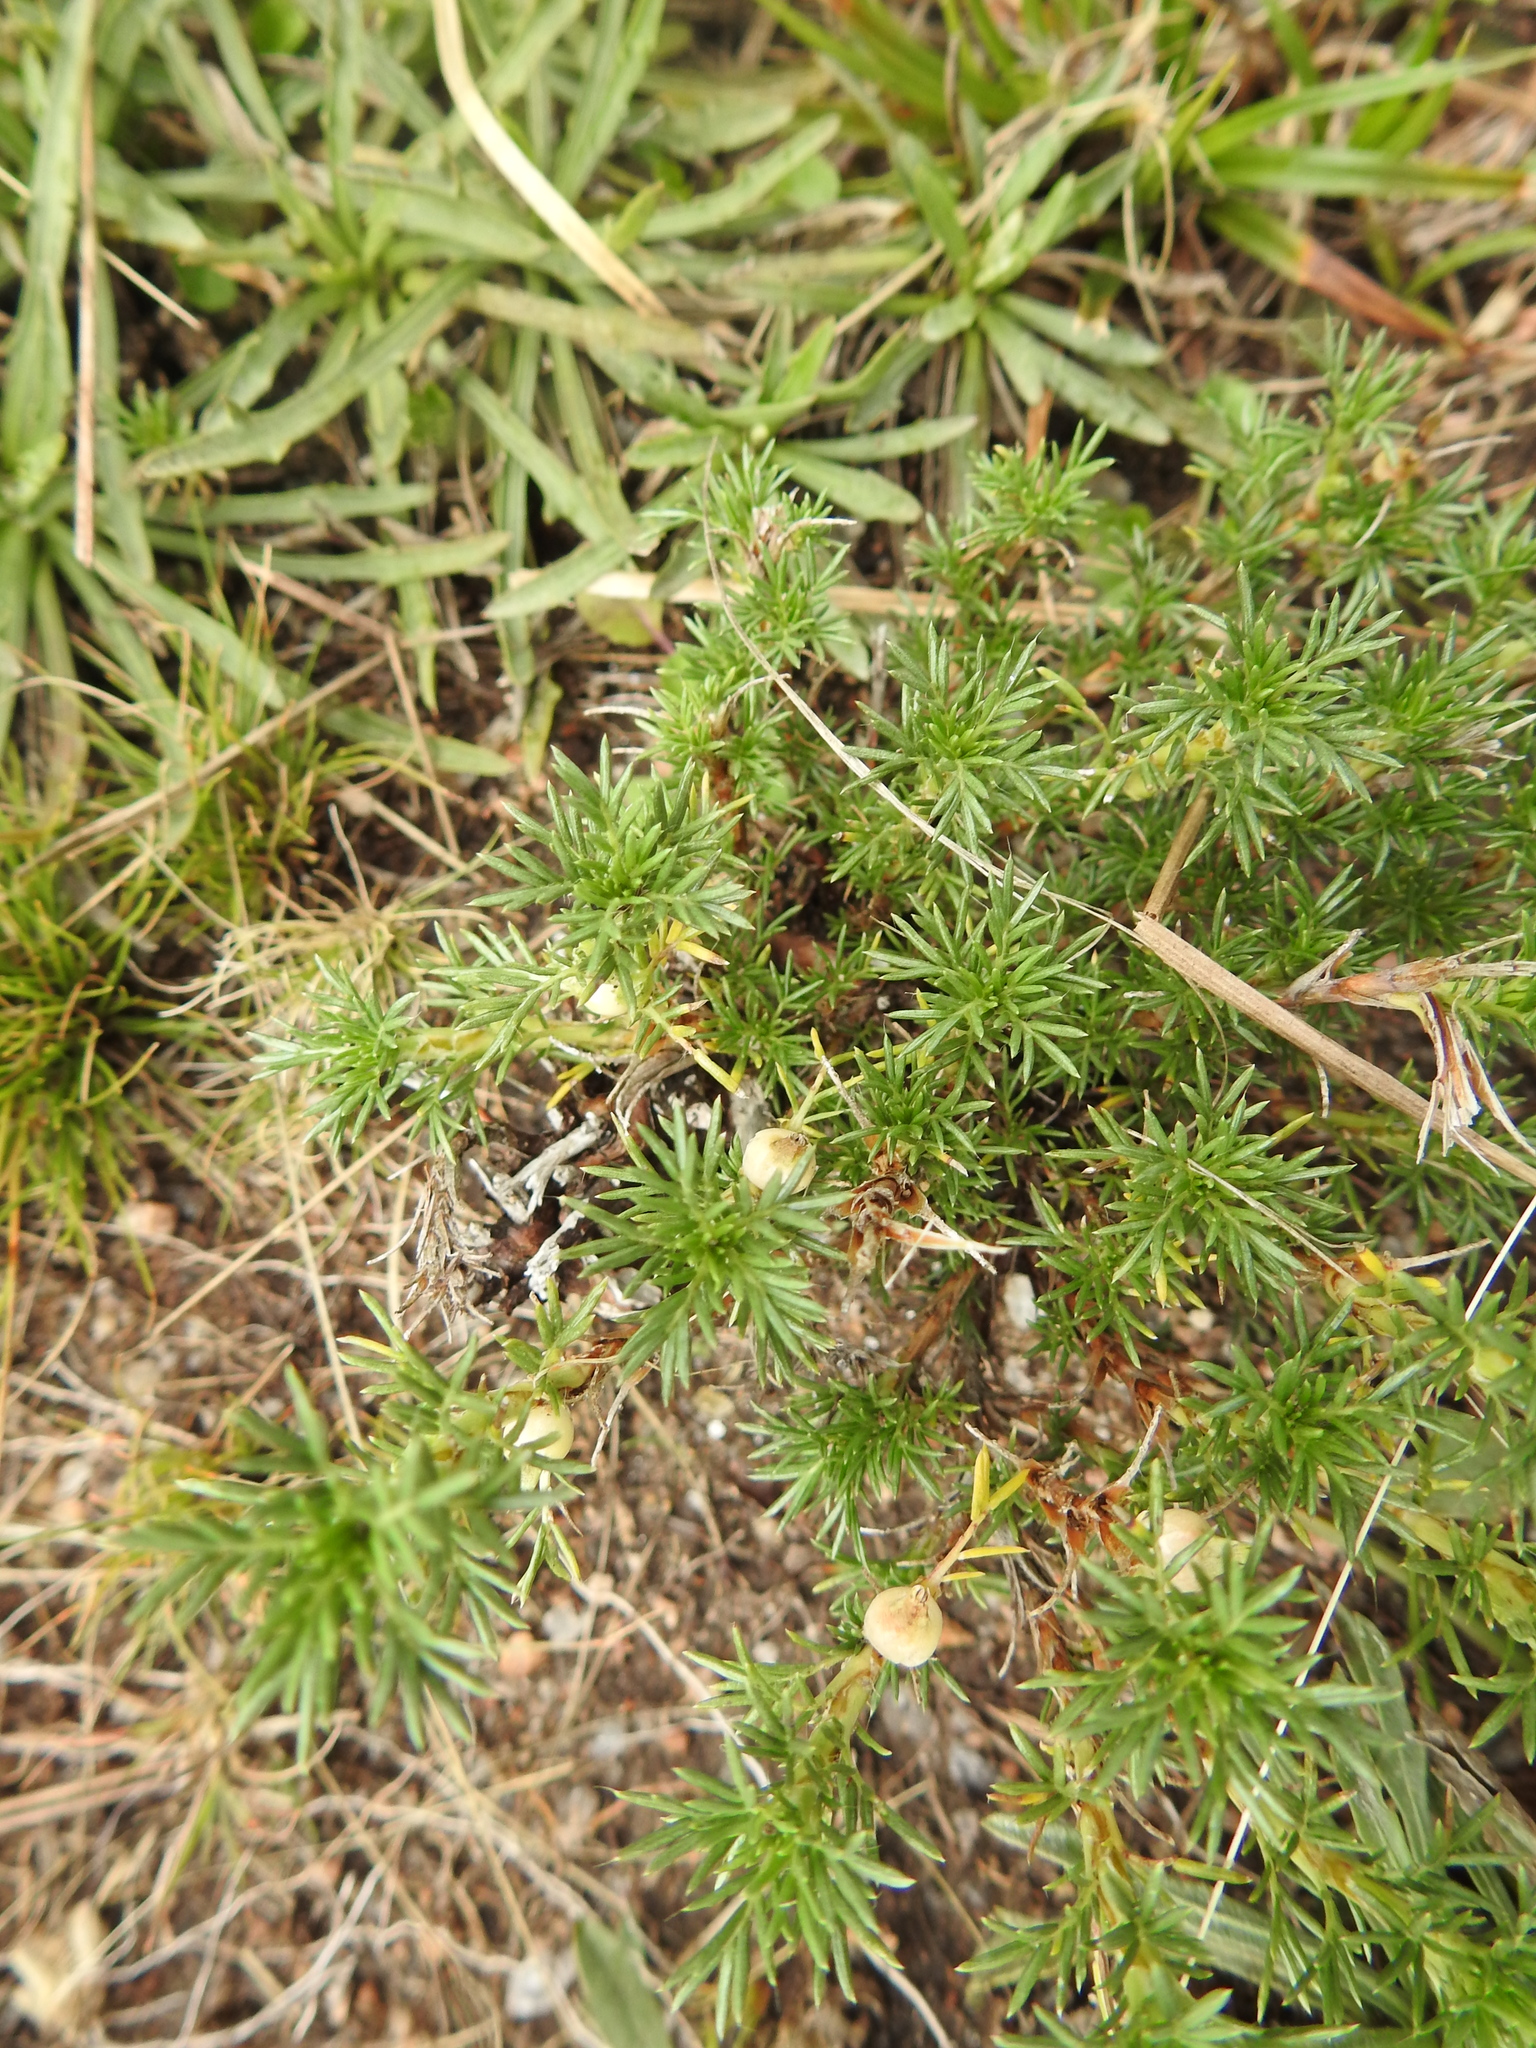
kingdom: Plantae
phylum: Tracheophyta
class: Magnoliopsida
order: Rosales
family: Rosaceae
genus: Margyricarpus
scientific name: Margyricarpus pinnatus
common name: Pearlfruit
